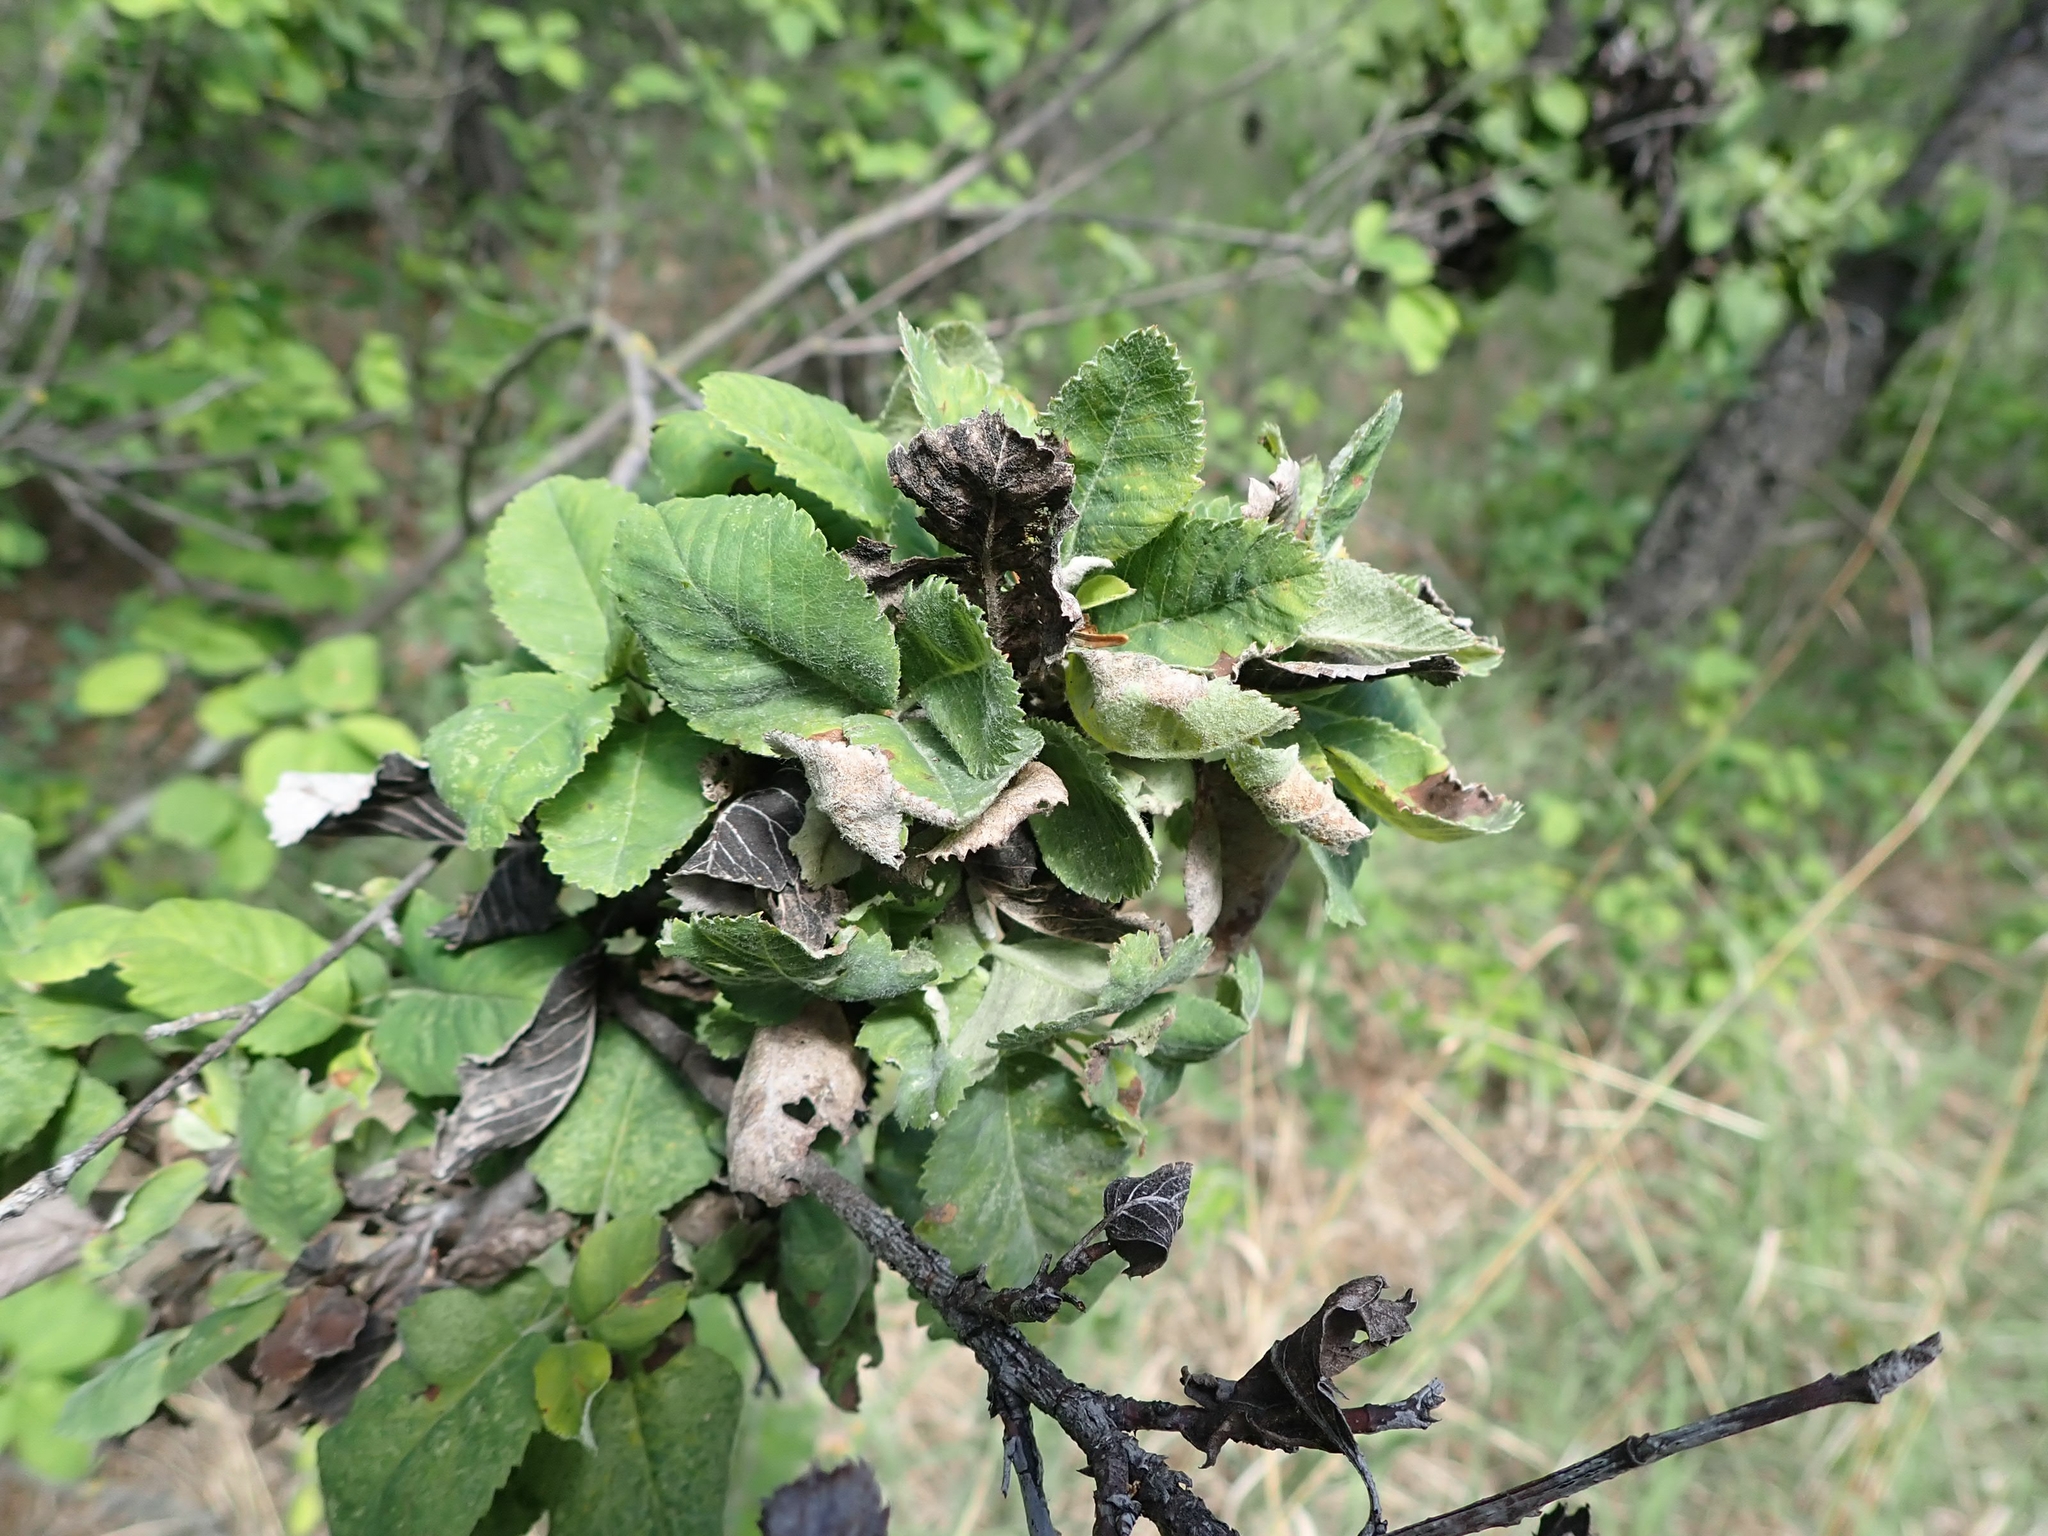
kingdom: Fungi
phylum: Ascomycota
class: Dothideomycetes
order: Venturiales
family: Venturiaceae
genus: Apiosporina
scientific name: Apiosporina collinsii
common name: Black leaf
